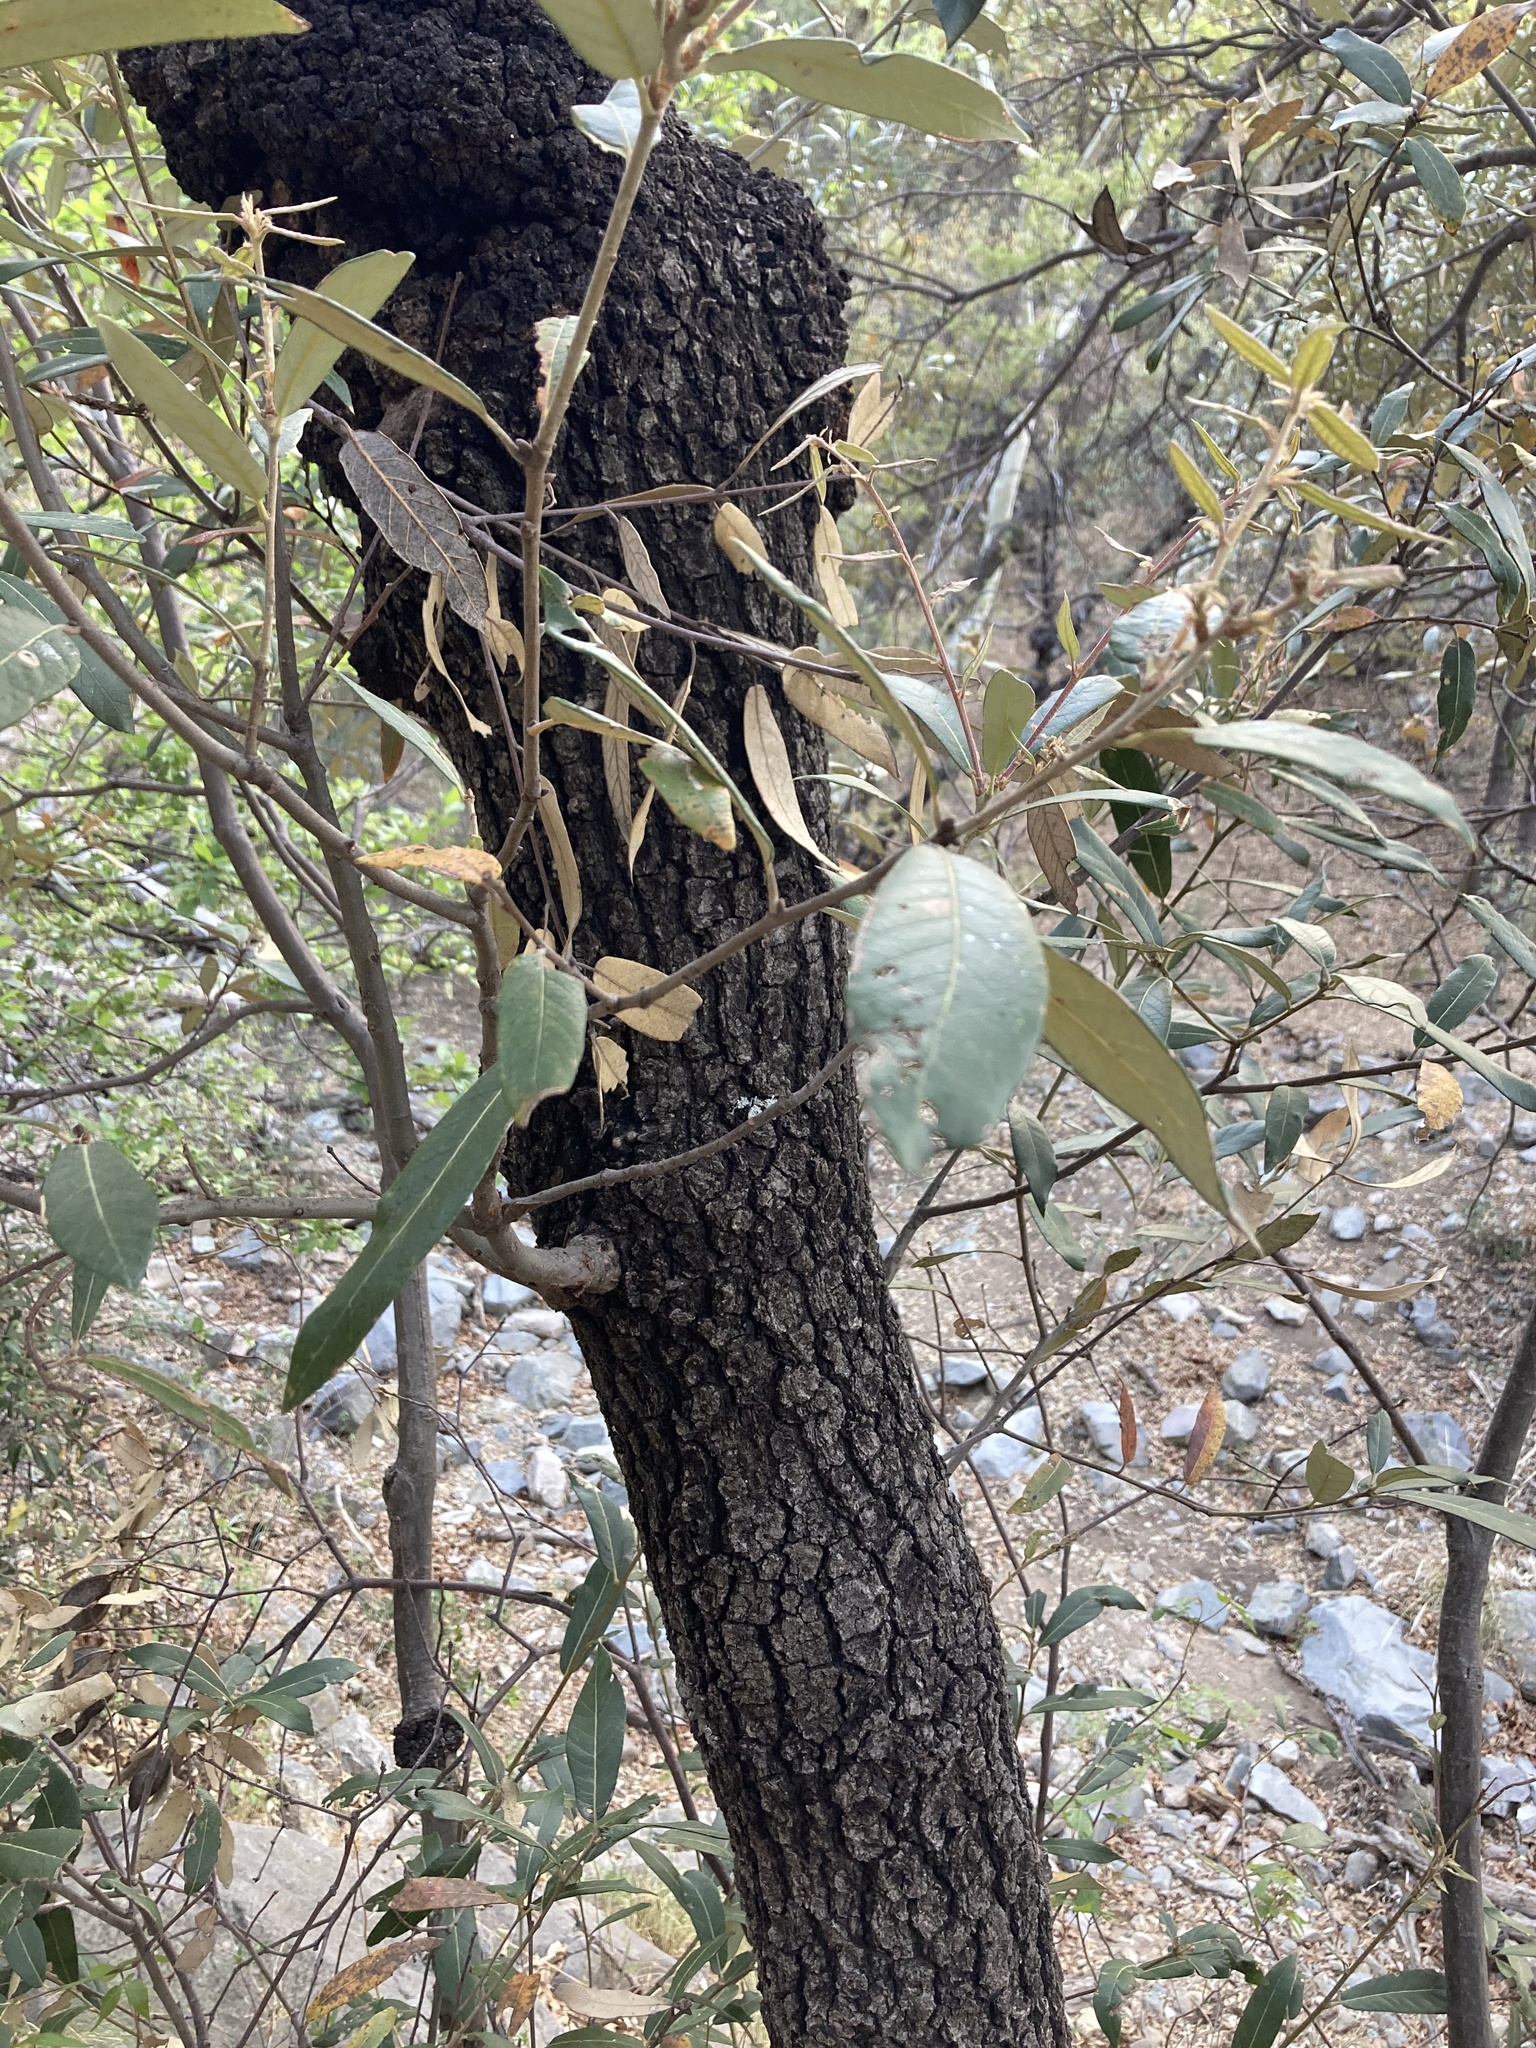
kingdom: Plantae
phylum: Tracheophyta
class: Magnoliopsida
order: Fagales
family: Fagaceae
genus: Quercus
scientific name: Quercus hypoleucoides
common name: Silverleaf oak
